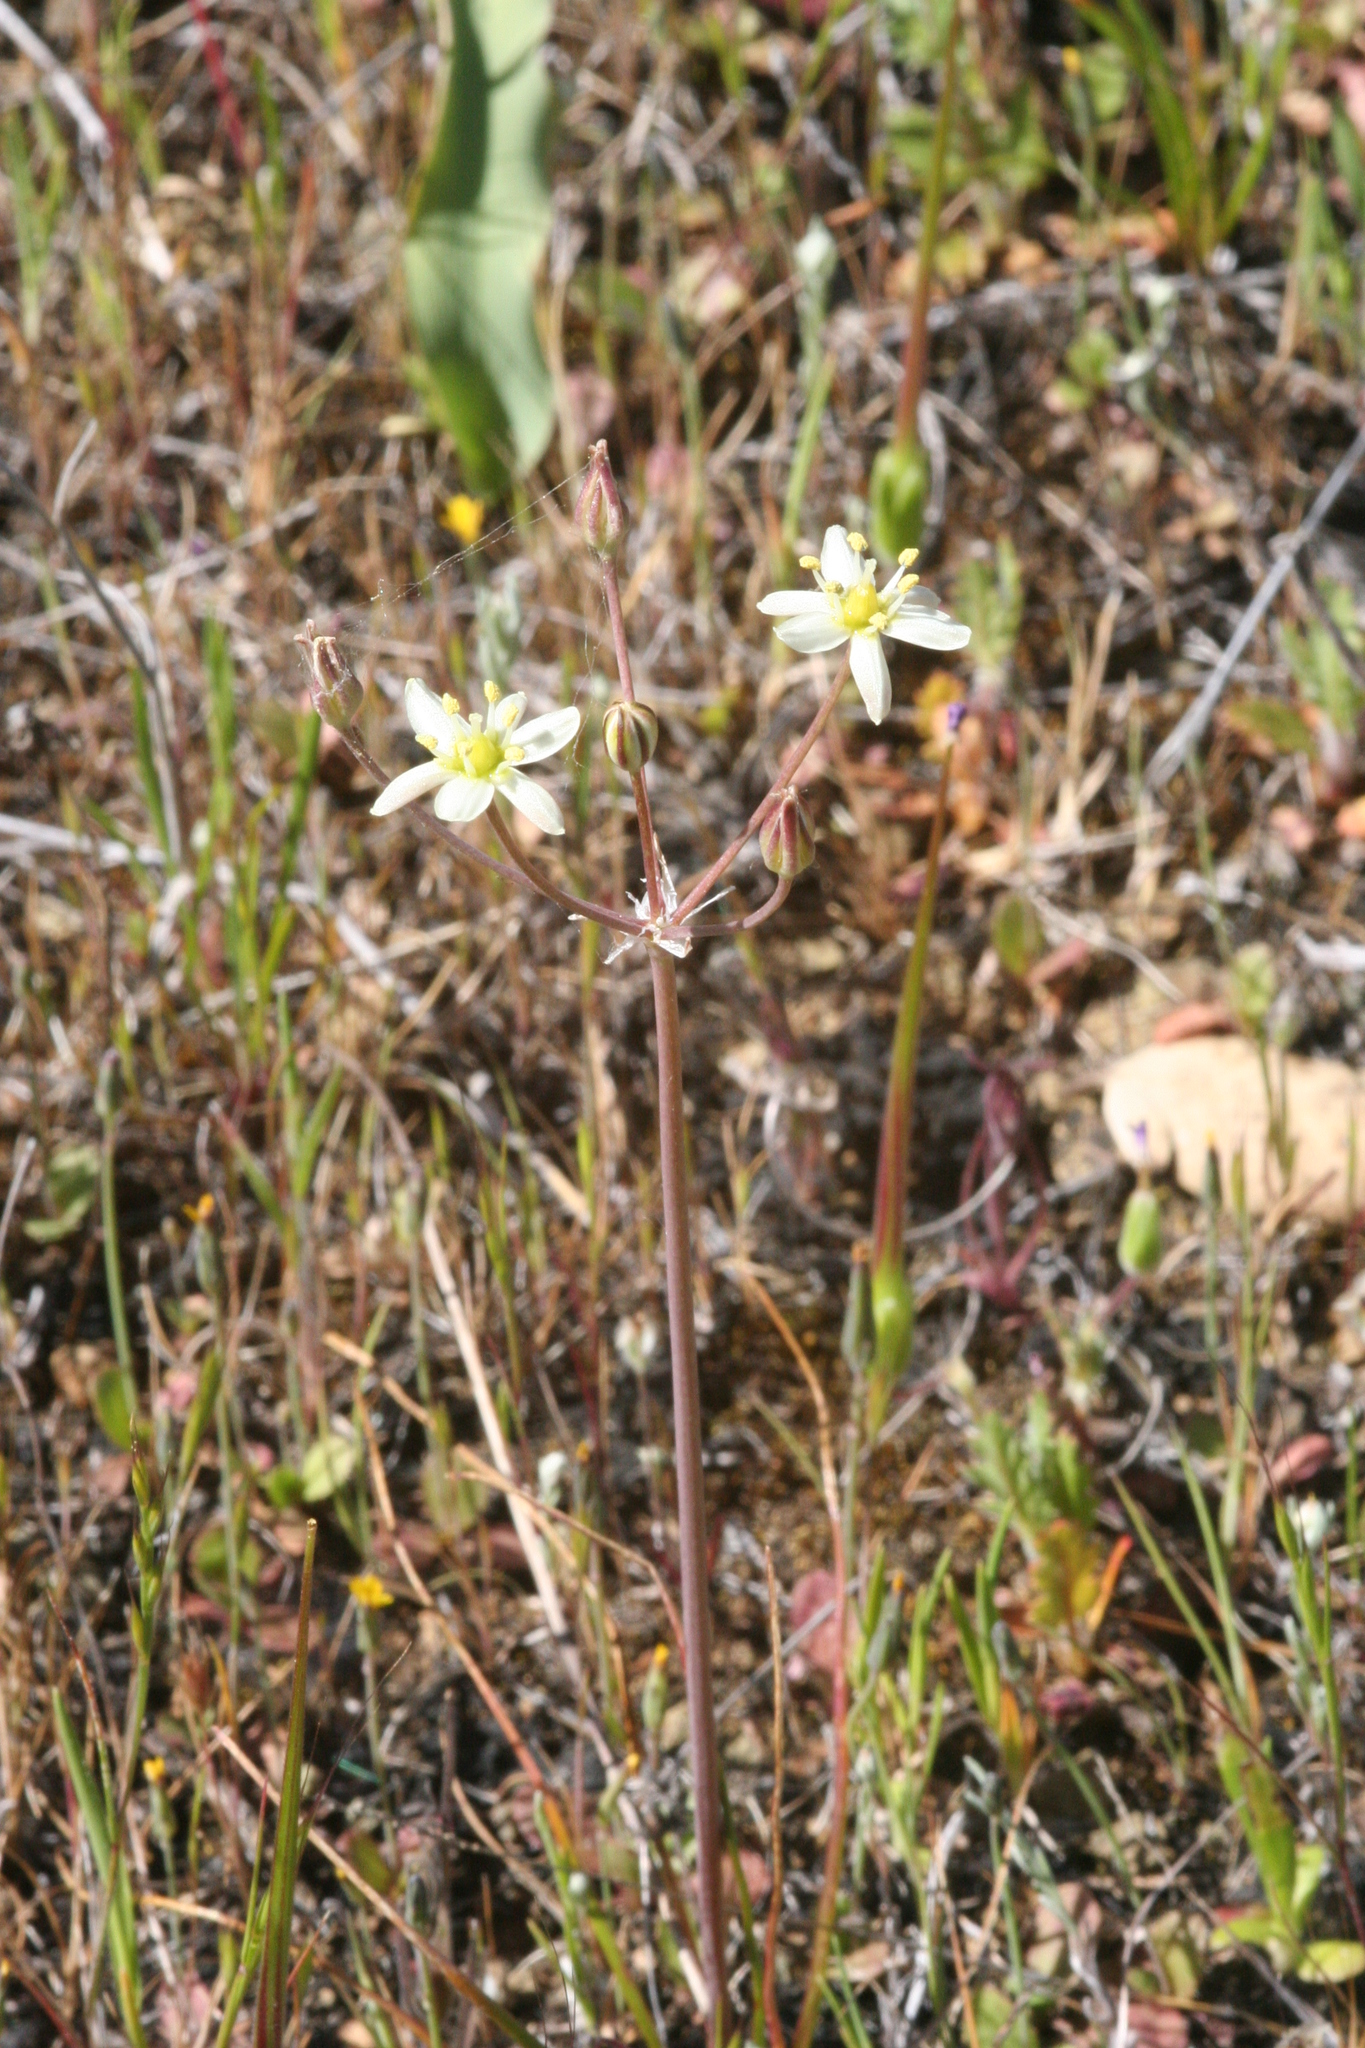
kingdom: Plantae
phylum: Tracheophyta
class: Liliopsida
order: Asparagales
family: Asparagaceae
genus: Muilla
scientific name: Muilla maritima
